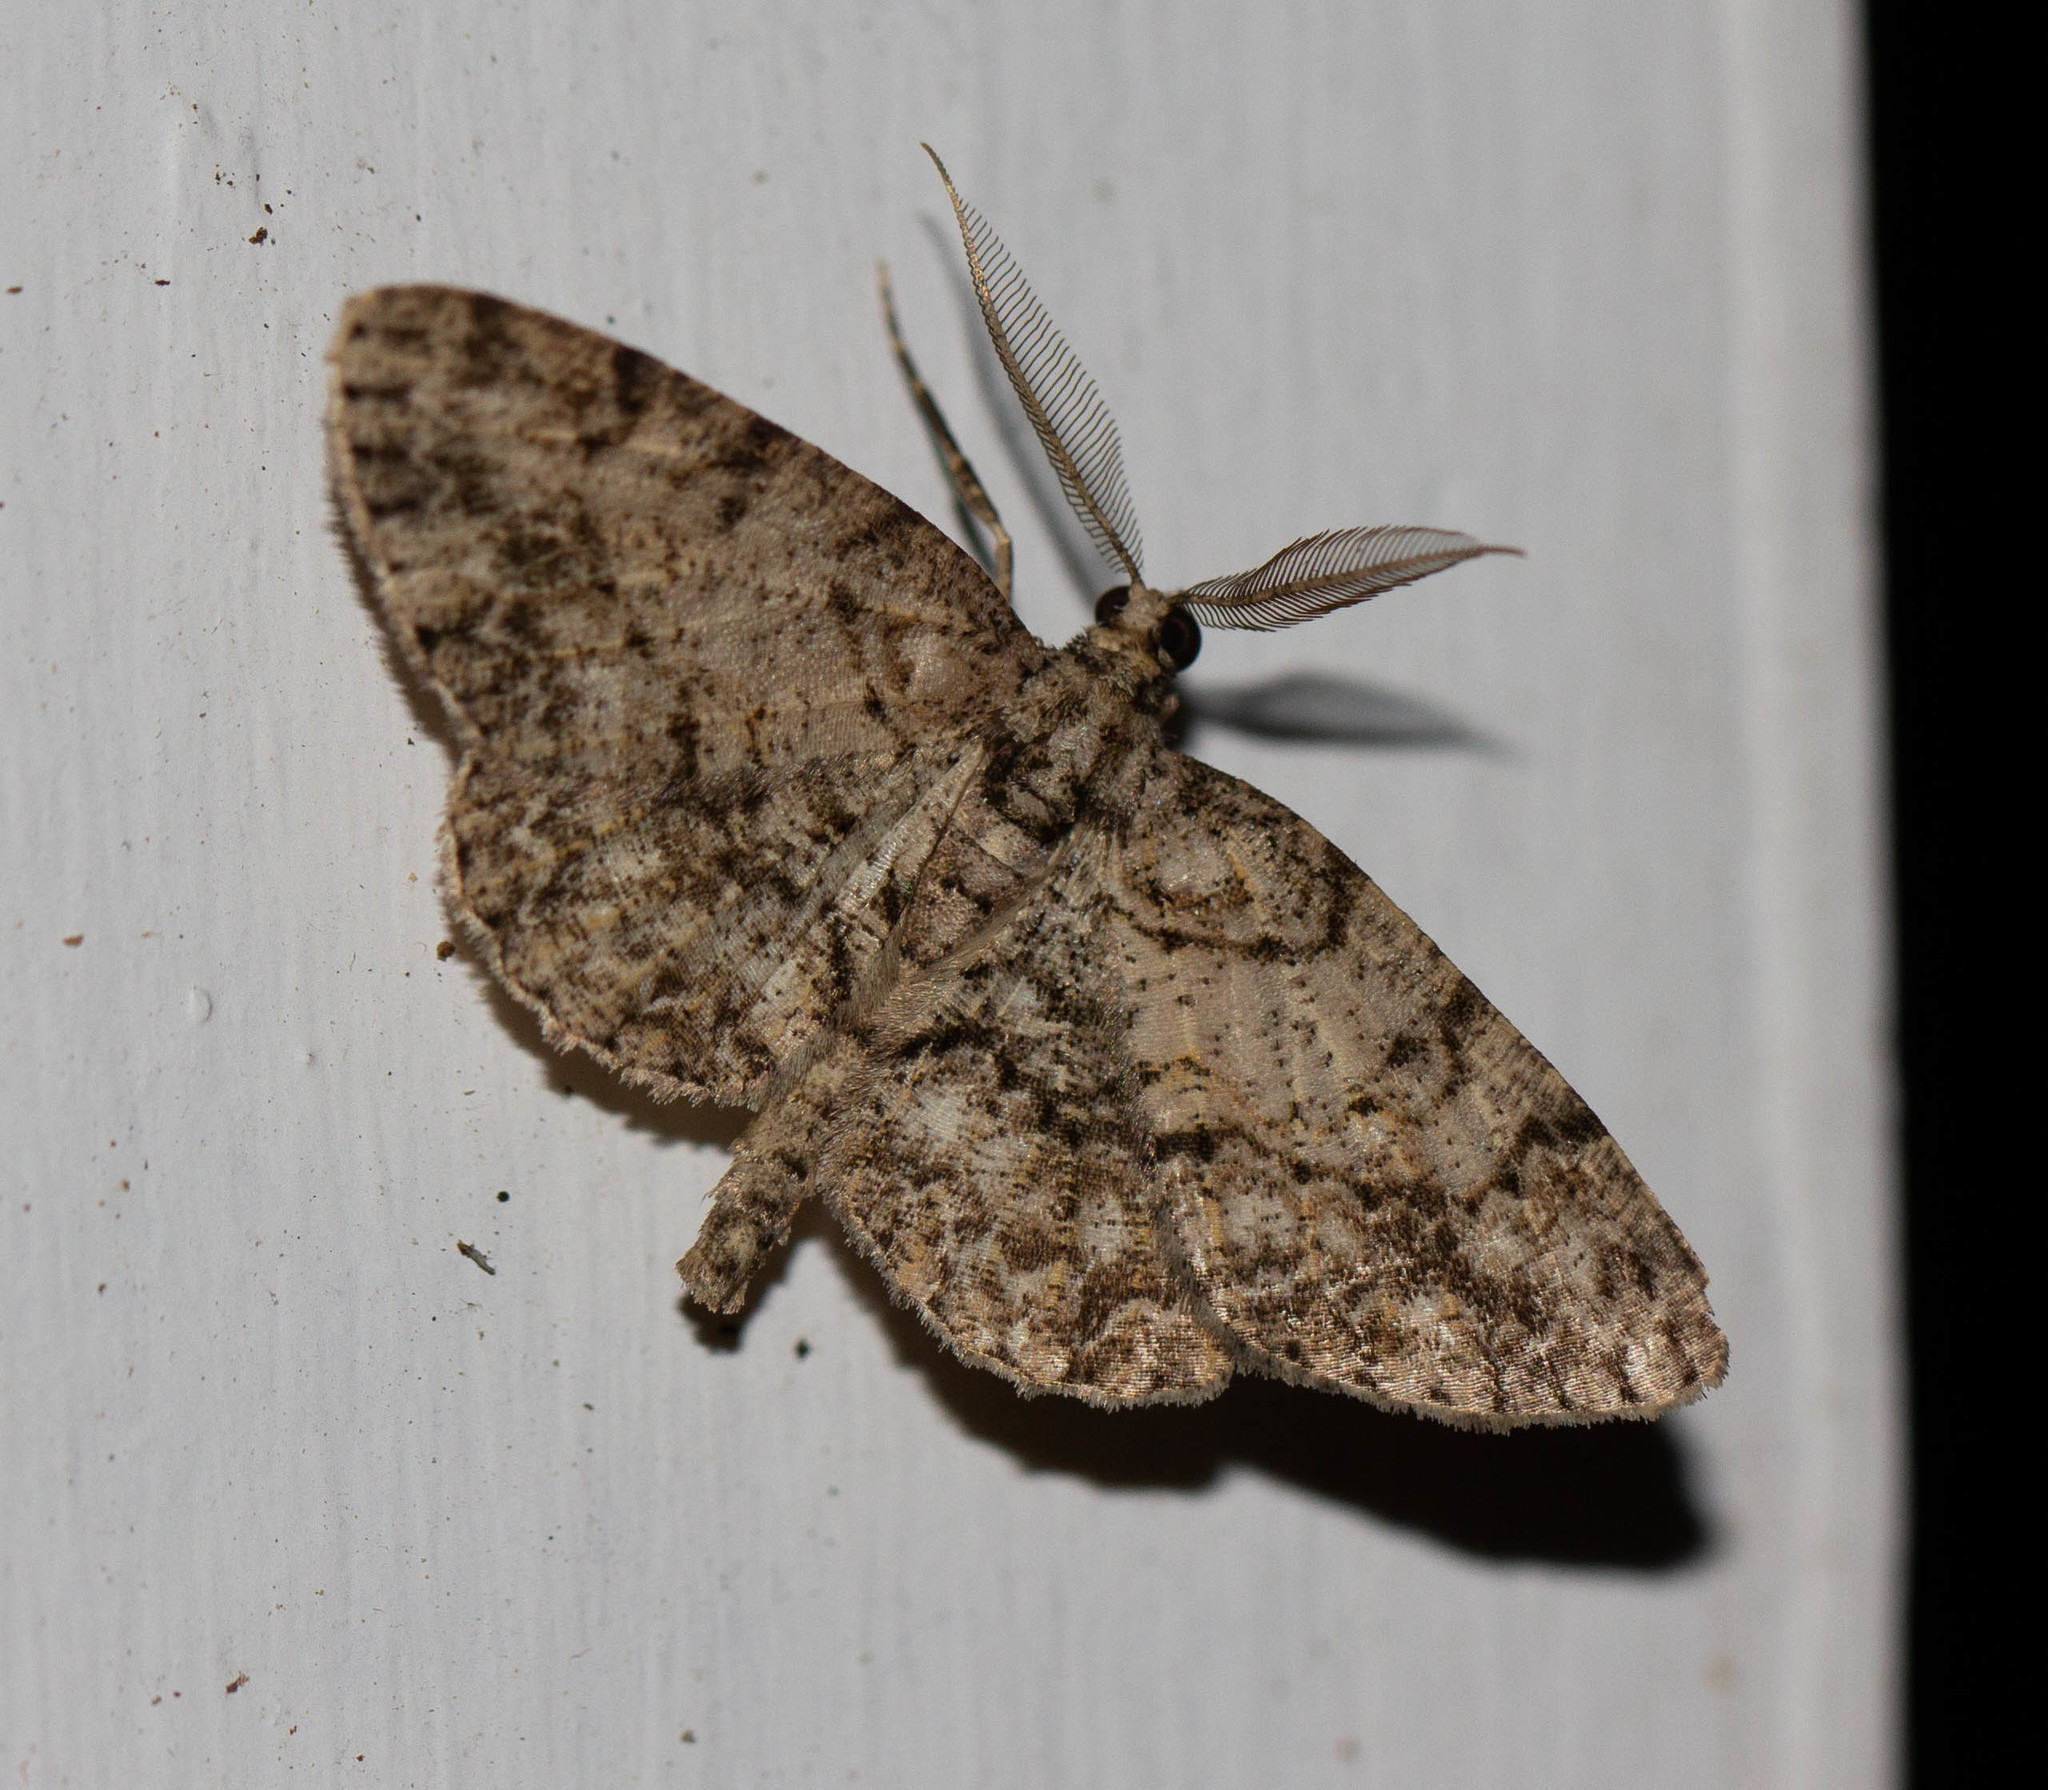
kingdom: Animalia
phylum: Arthropoda
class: Insecta
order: Lepidoptera
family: Geometridae
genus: Protoboarmia
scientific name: Protoboarmia porcelaria
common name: Porcelain gray
